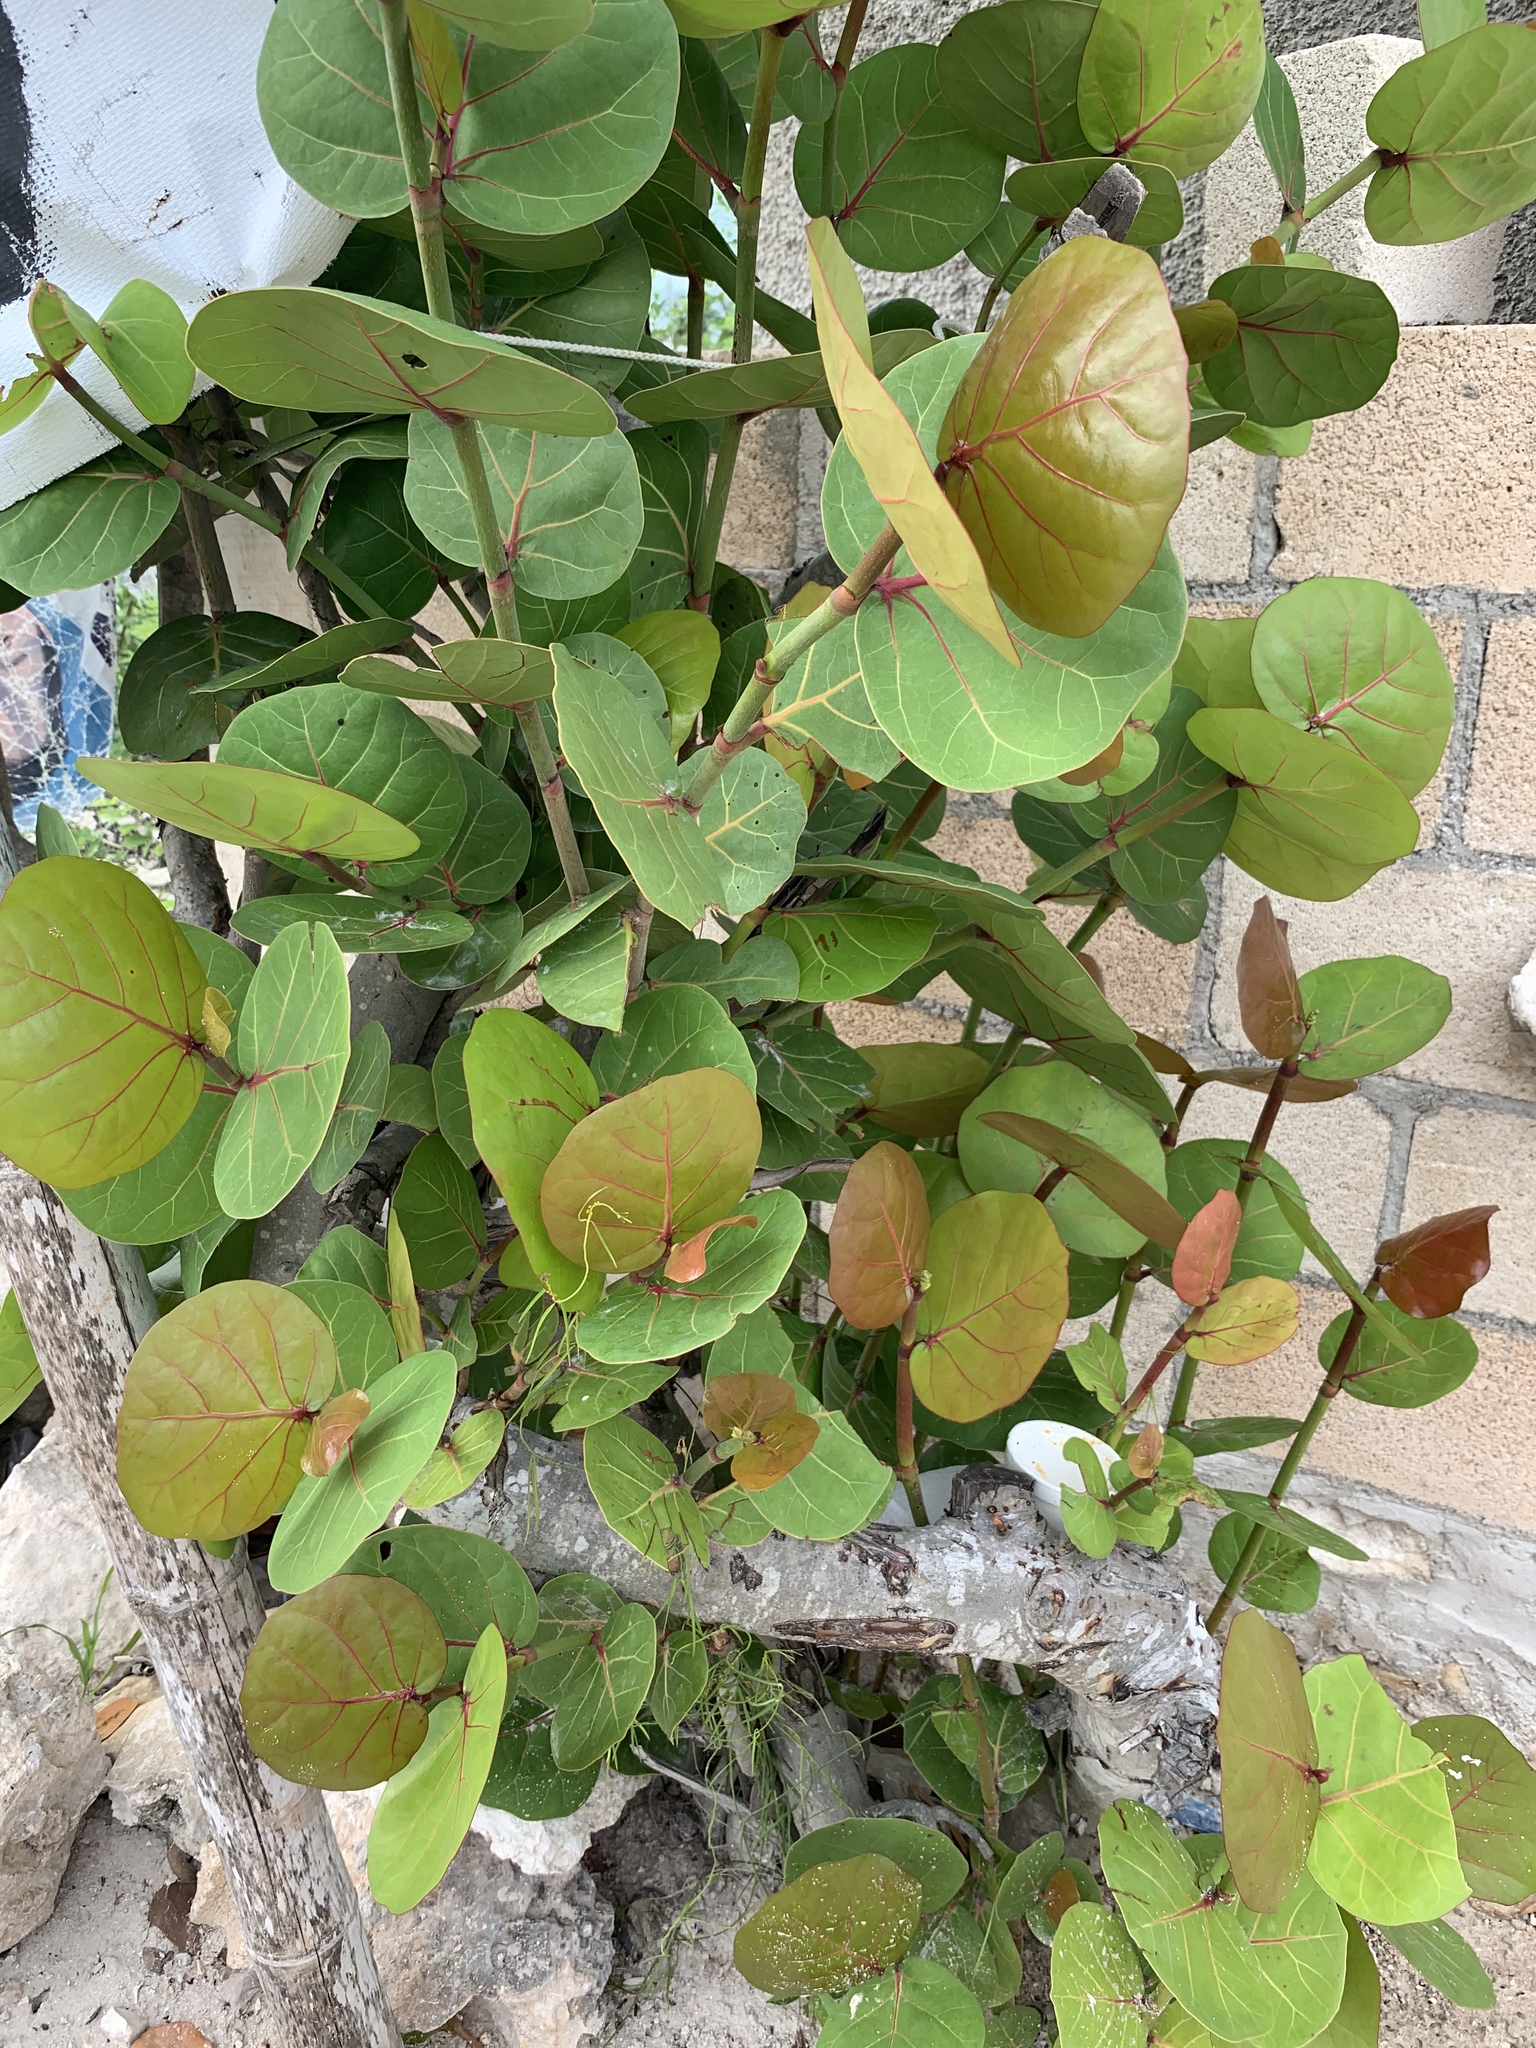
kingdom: Plantae
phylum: Tracheophyta
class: Magnoliopsida
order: Caryophyllales
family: Polygonaceae
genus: Coccoloba
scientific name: Coccoloba uvifera
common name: Seagrape
